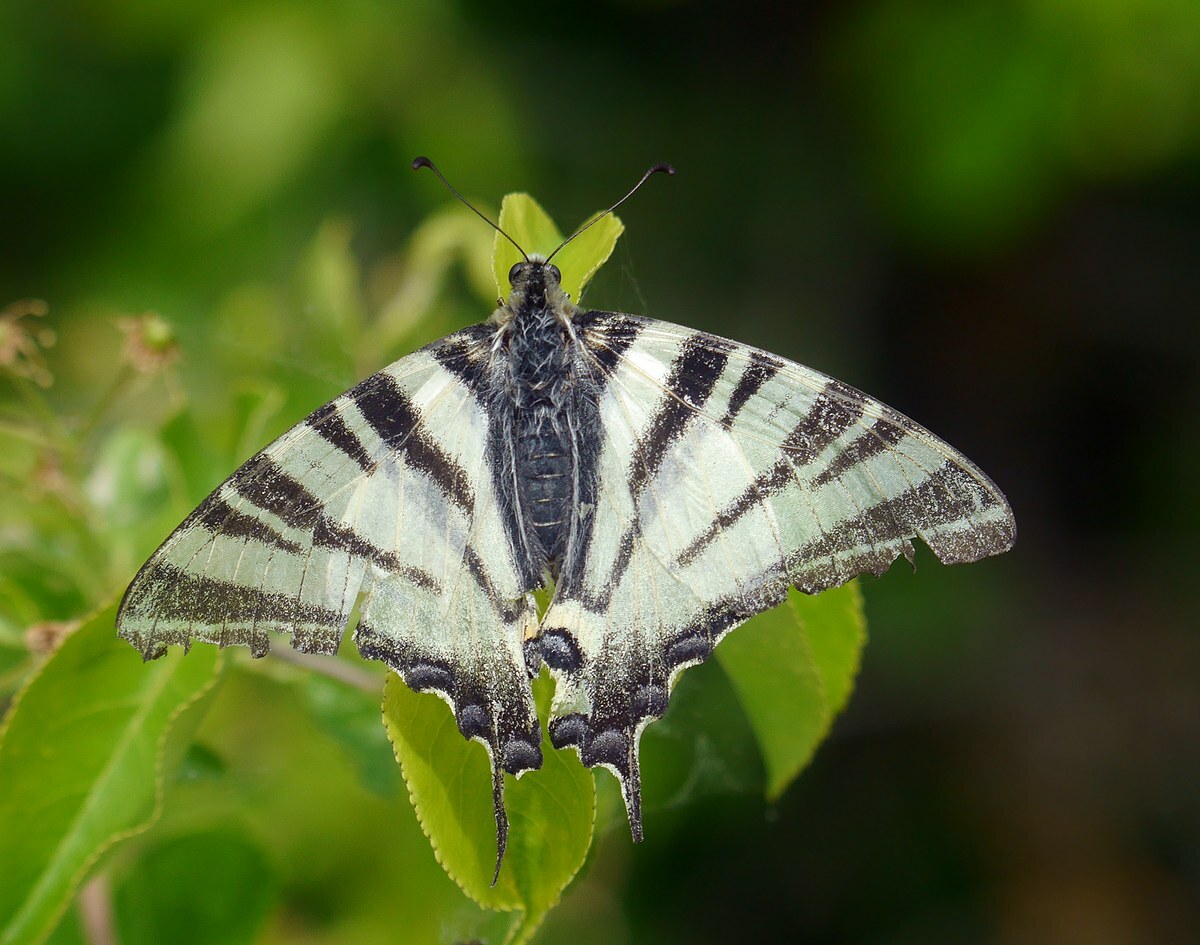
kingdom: Animalia
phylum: Arthropoda
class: Insecta
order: Lepidoptera
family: Papilionidae
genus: Iphiclides
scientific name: Iphiclides podalirius
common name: Scarce swallowtail
